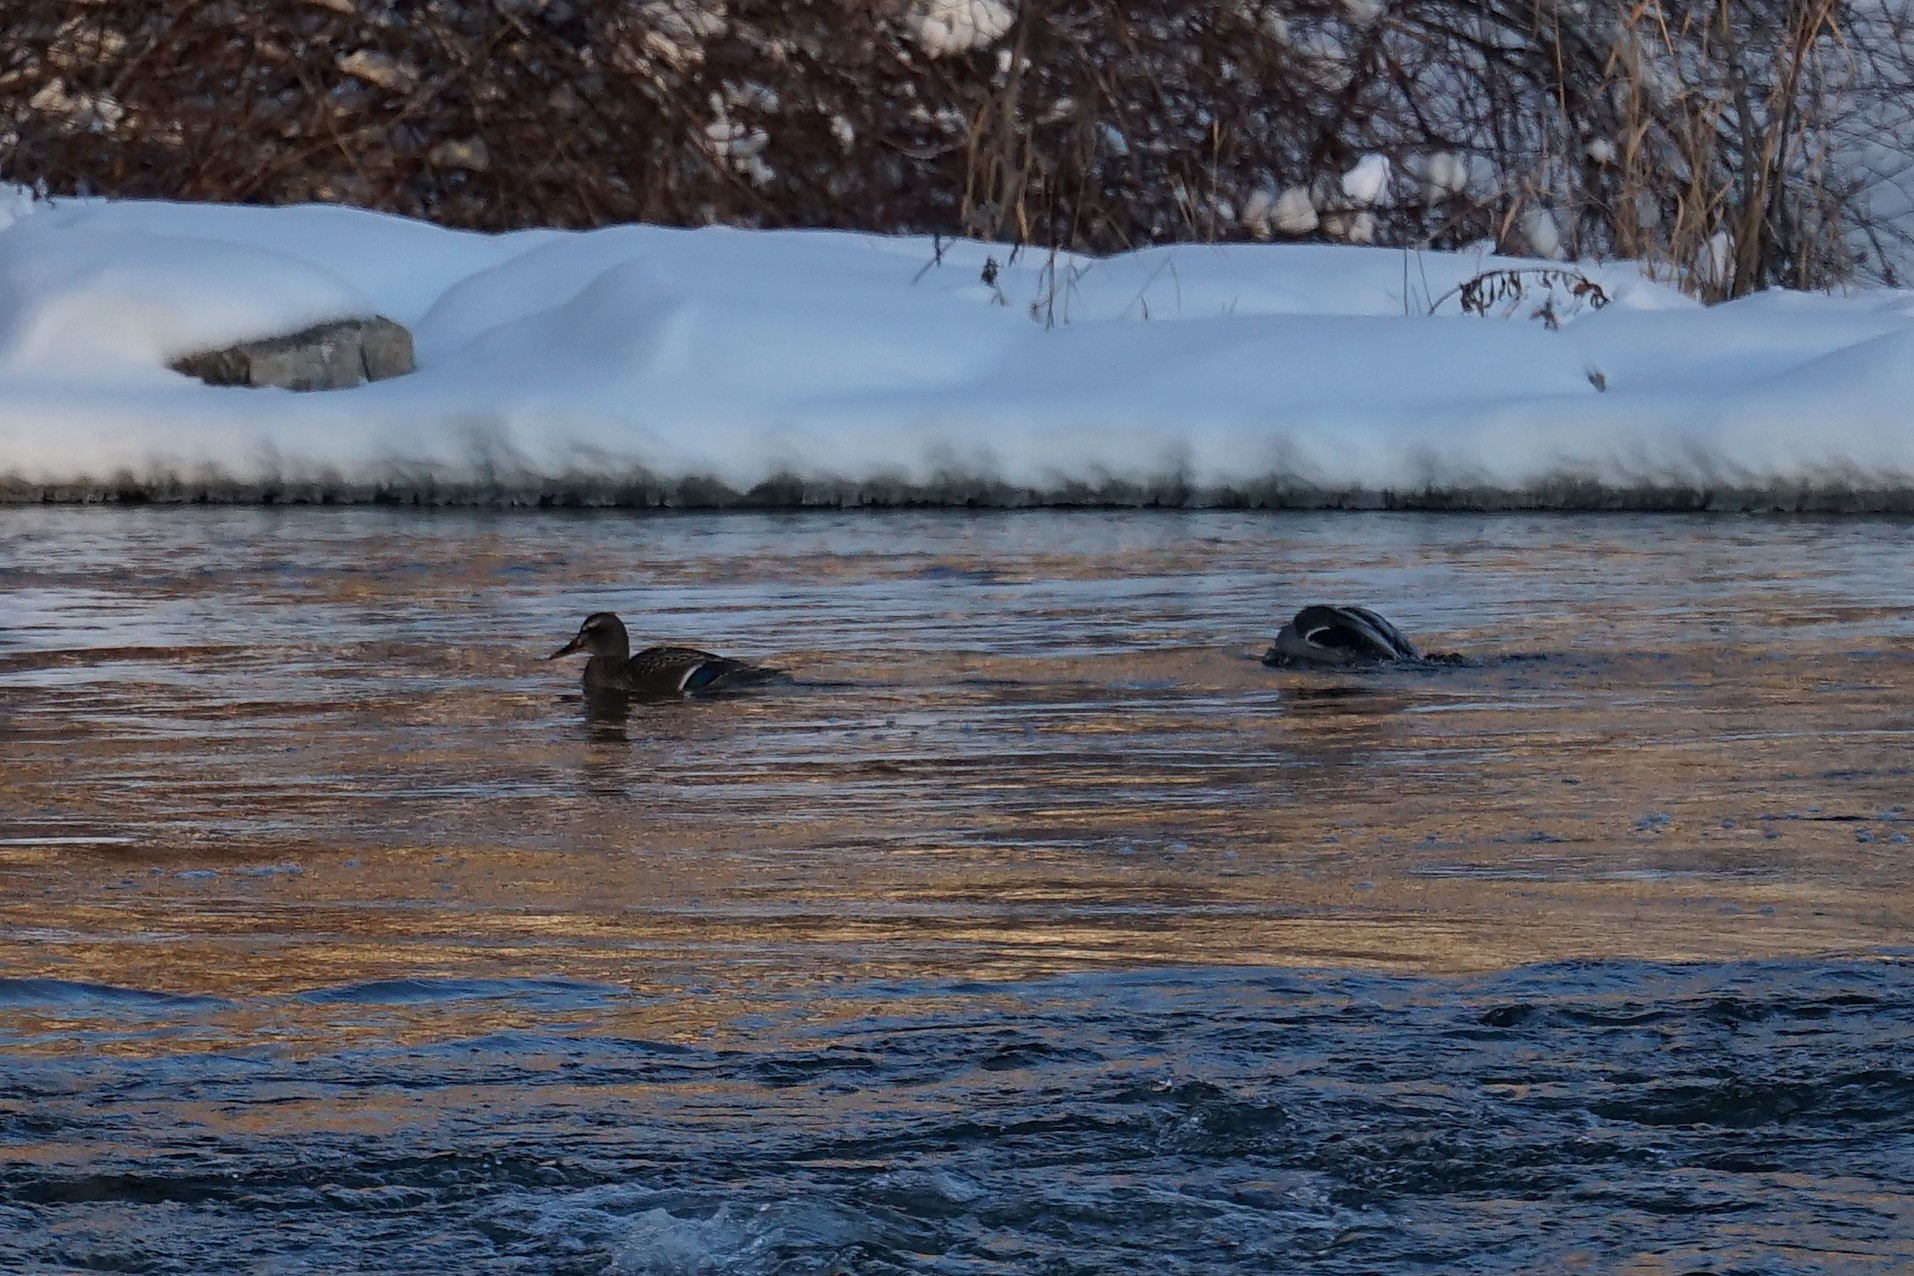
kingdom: Animalia
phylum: Chordata
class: Aves
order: Anseriformes
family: Anatidae
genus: Anas
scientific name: Anas platyrhynchos
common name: Mallard
